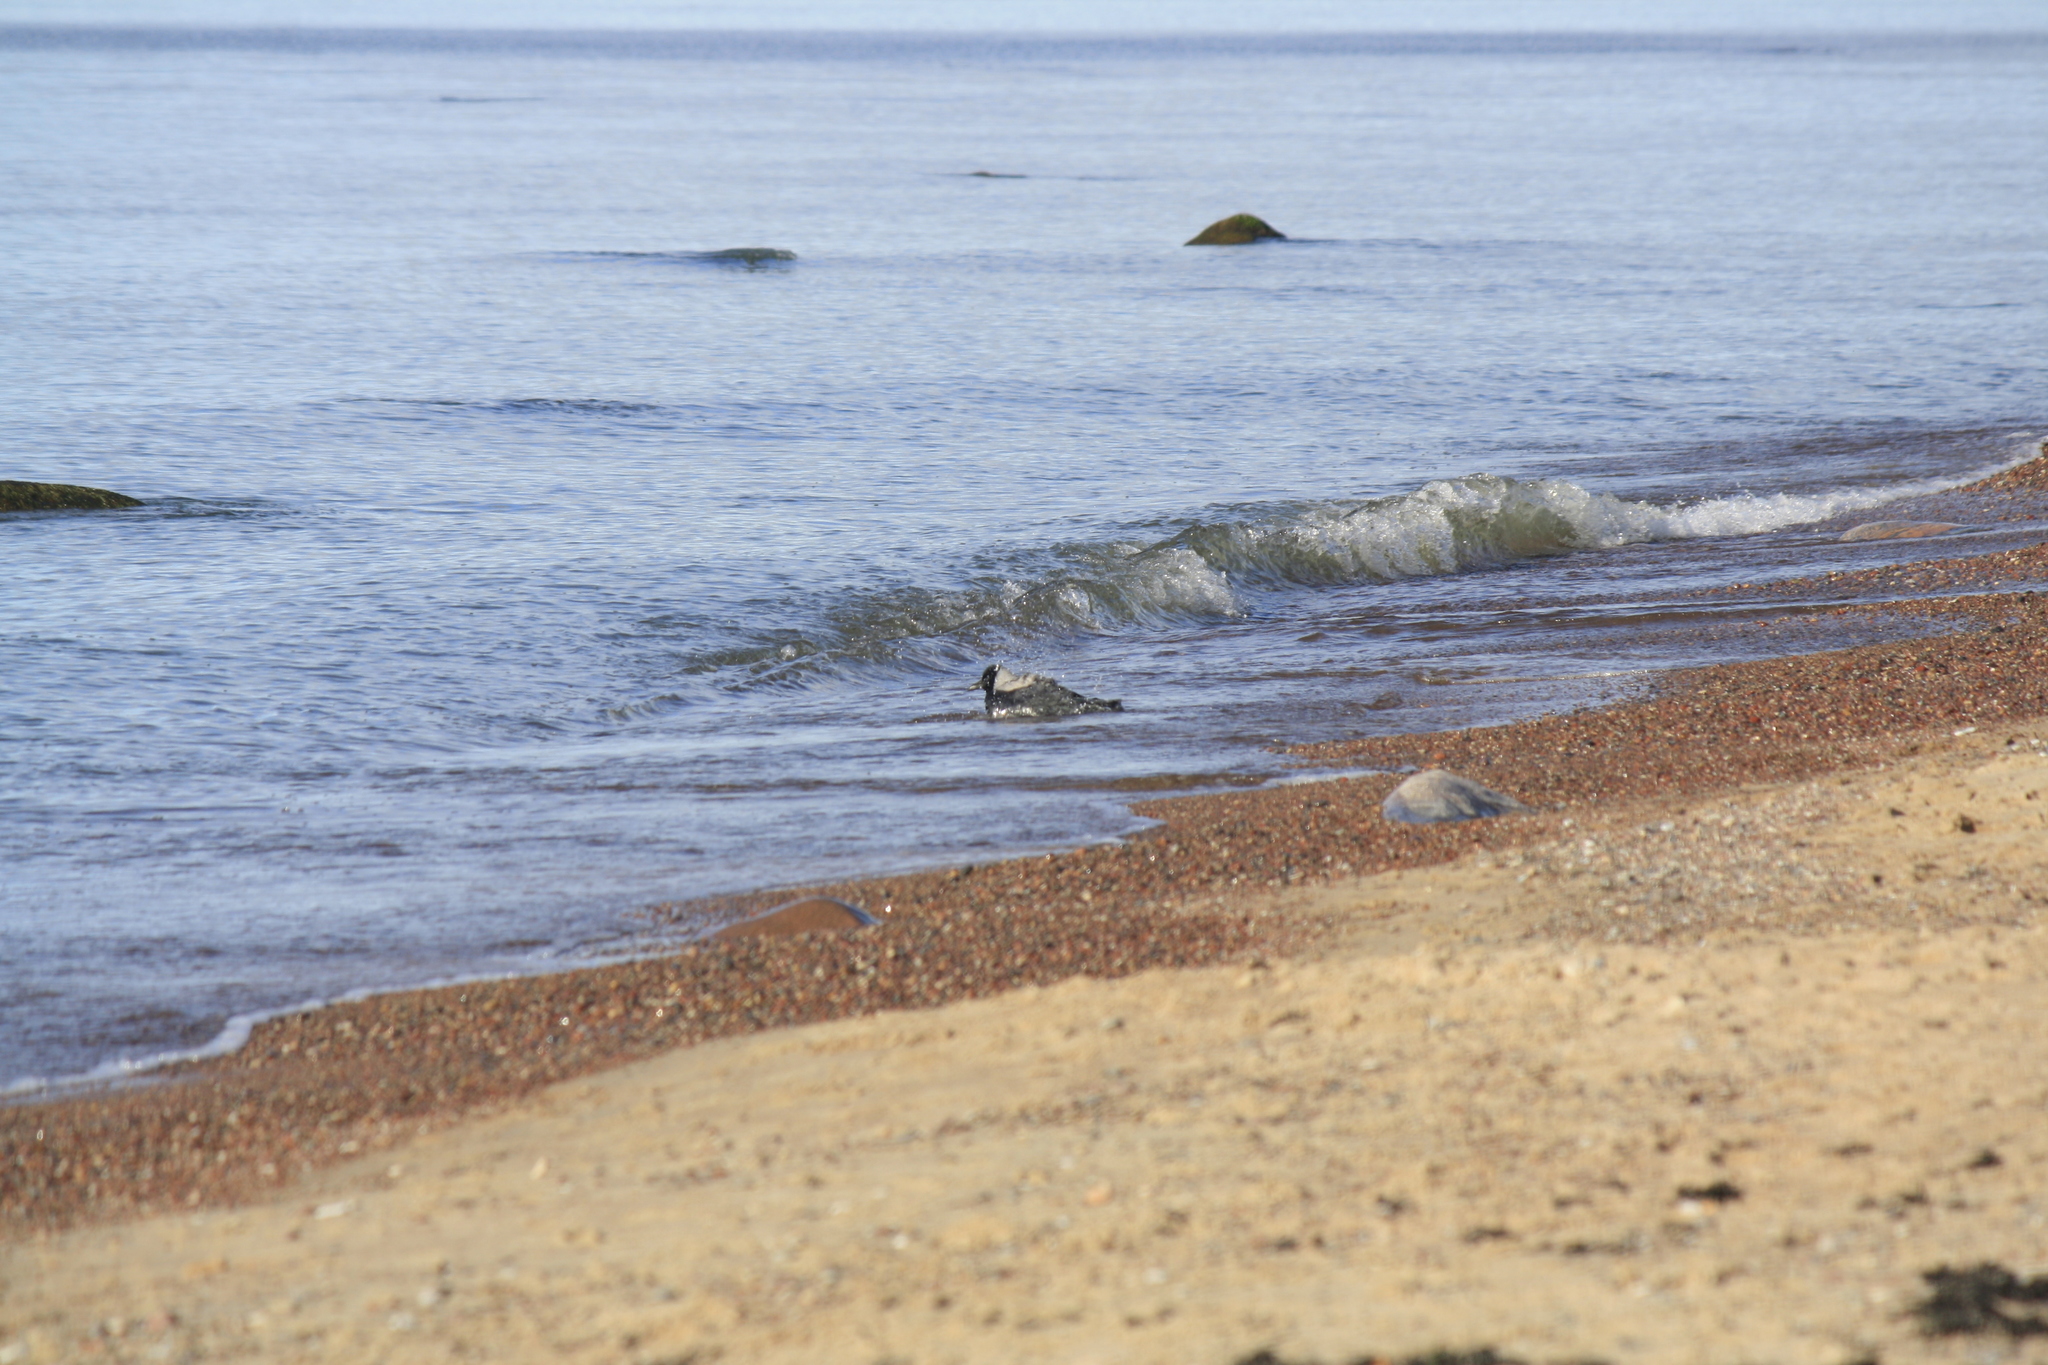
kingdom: Animalia
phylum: Chordata
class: Aves
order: Passeriformes
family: Corvidae
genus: Corvus
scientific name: Corvus cornix
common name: Hooded crow
